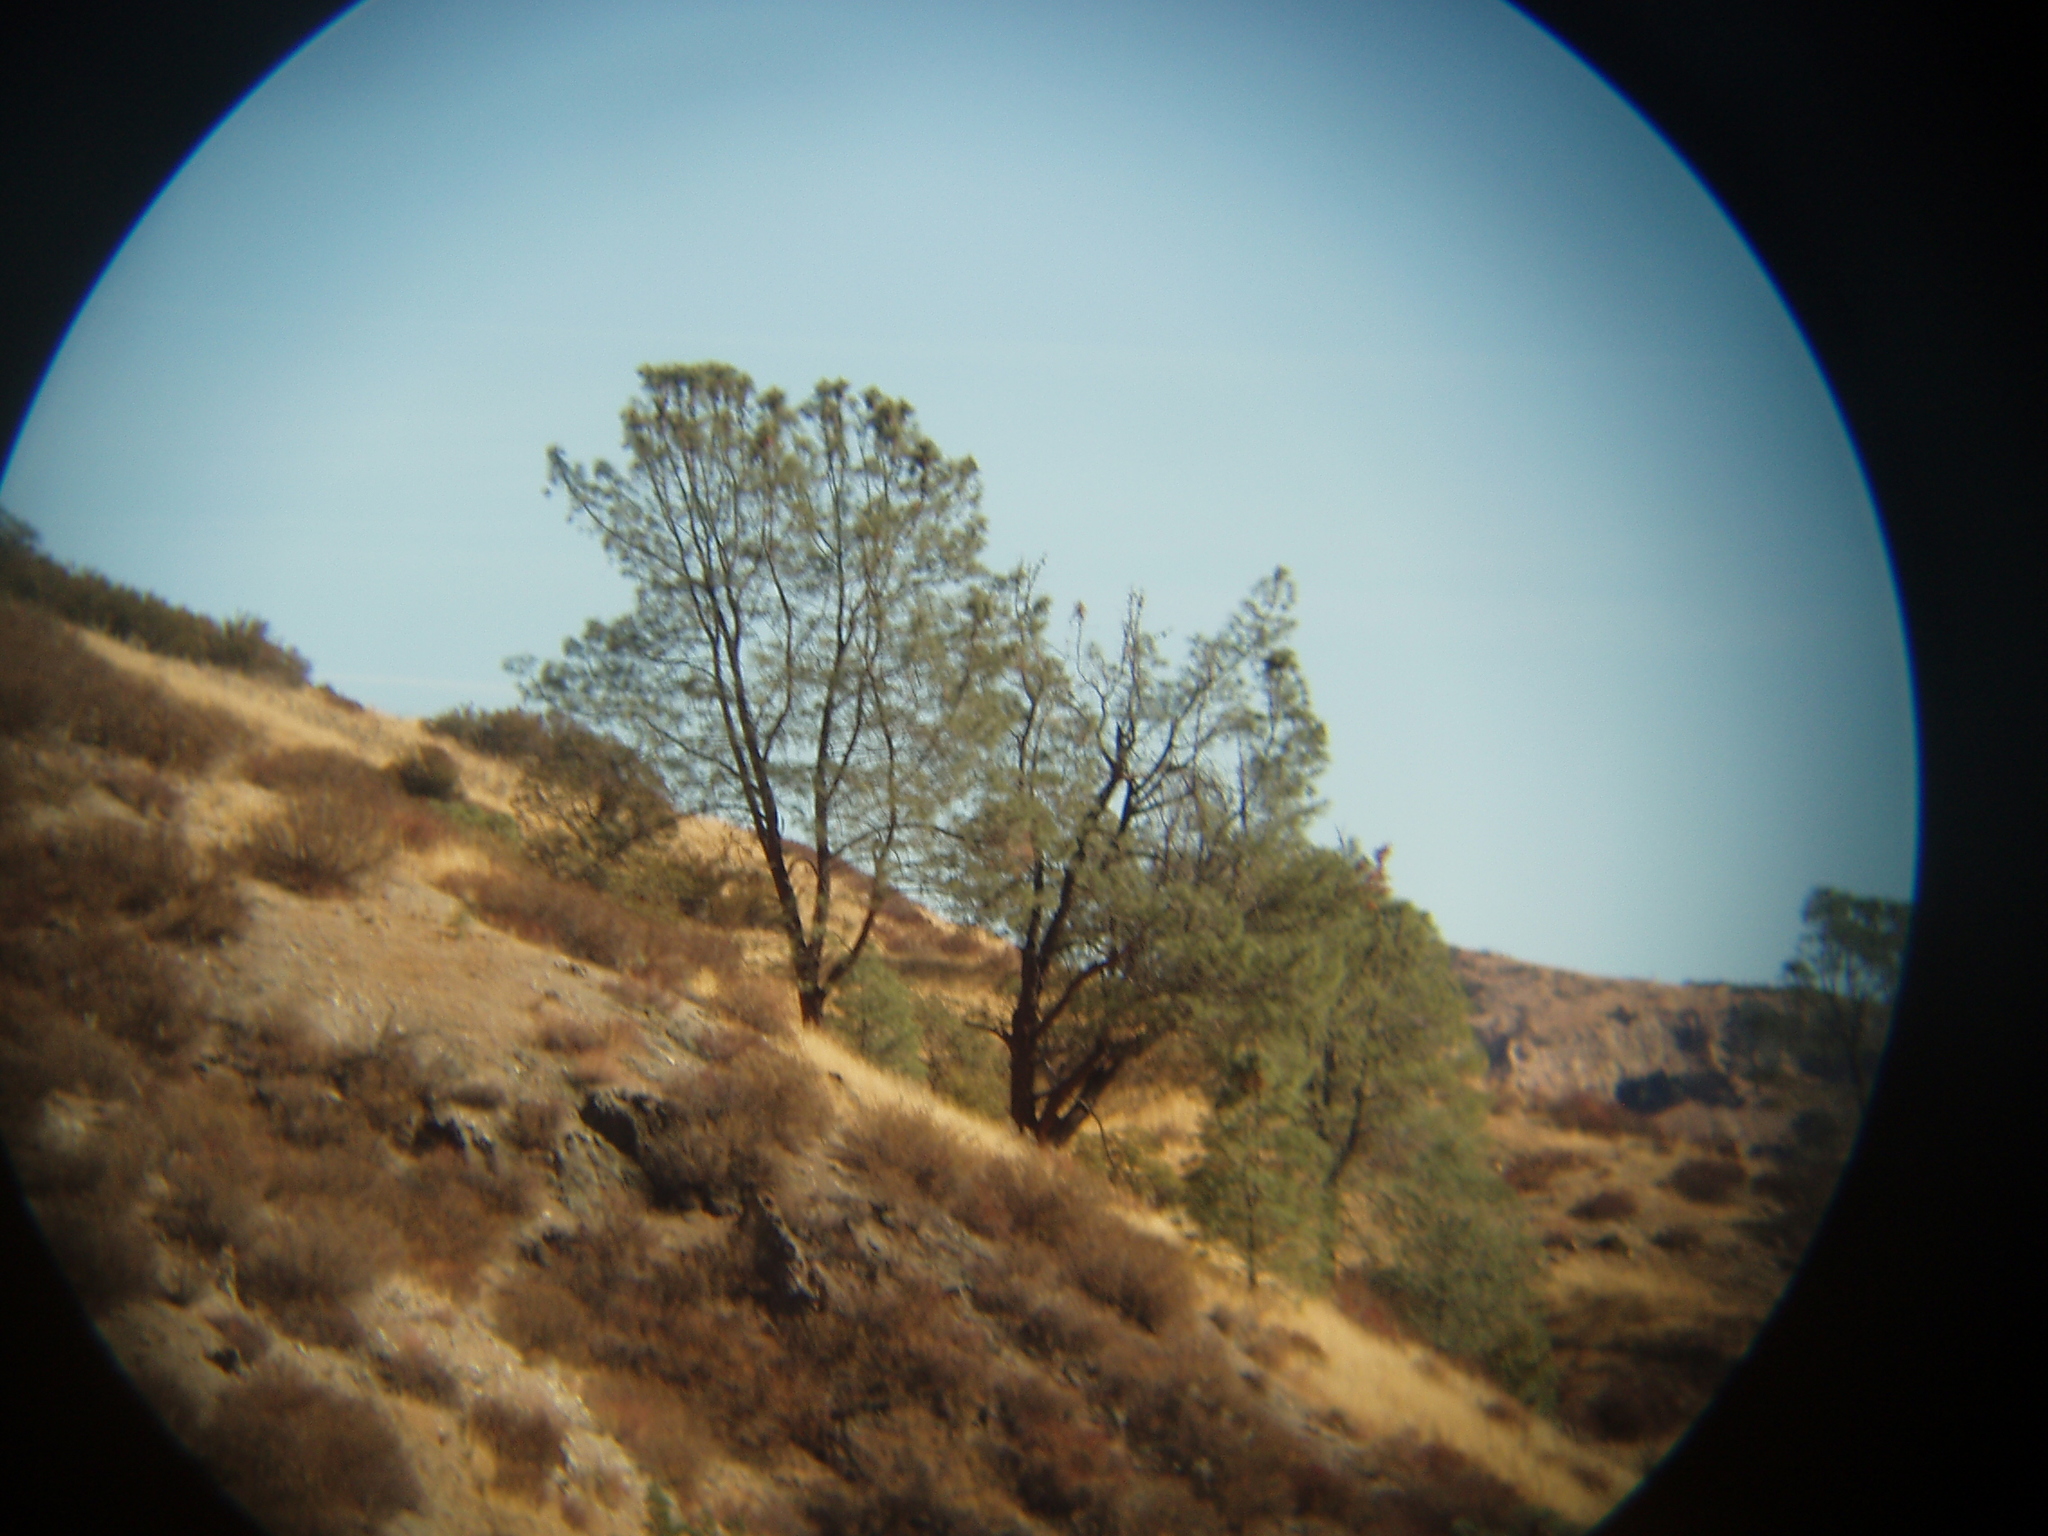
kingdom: Plantae
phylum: Tracheophyta
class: Pinopsida
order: Pinales
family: Pinaceae
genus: Pinus
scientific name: Pinus sabiniana
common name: Bull pine
